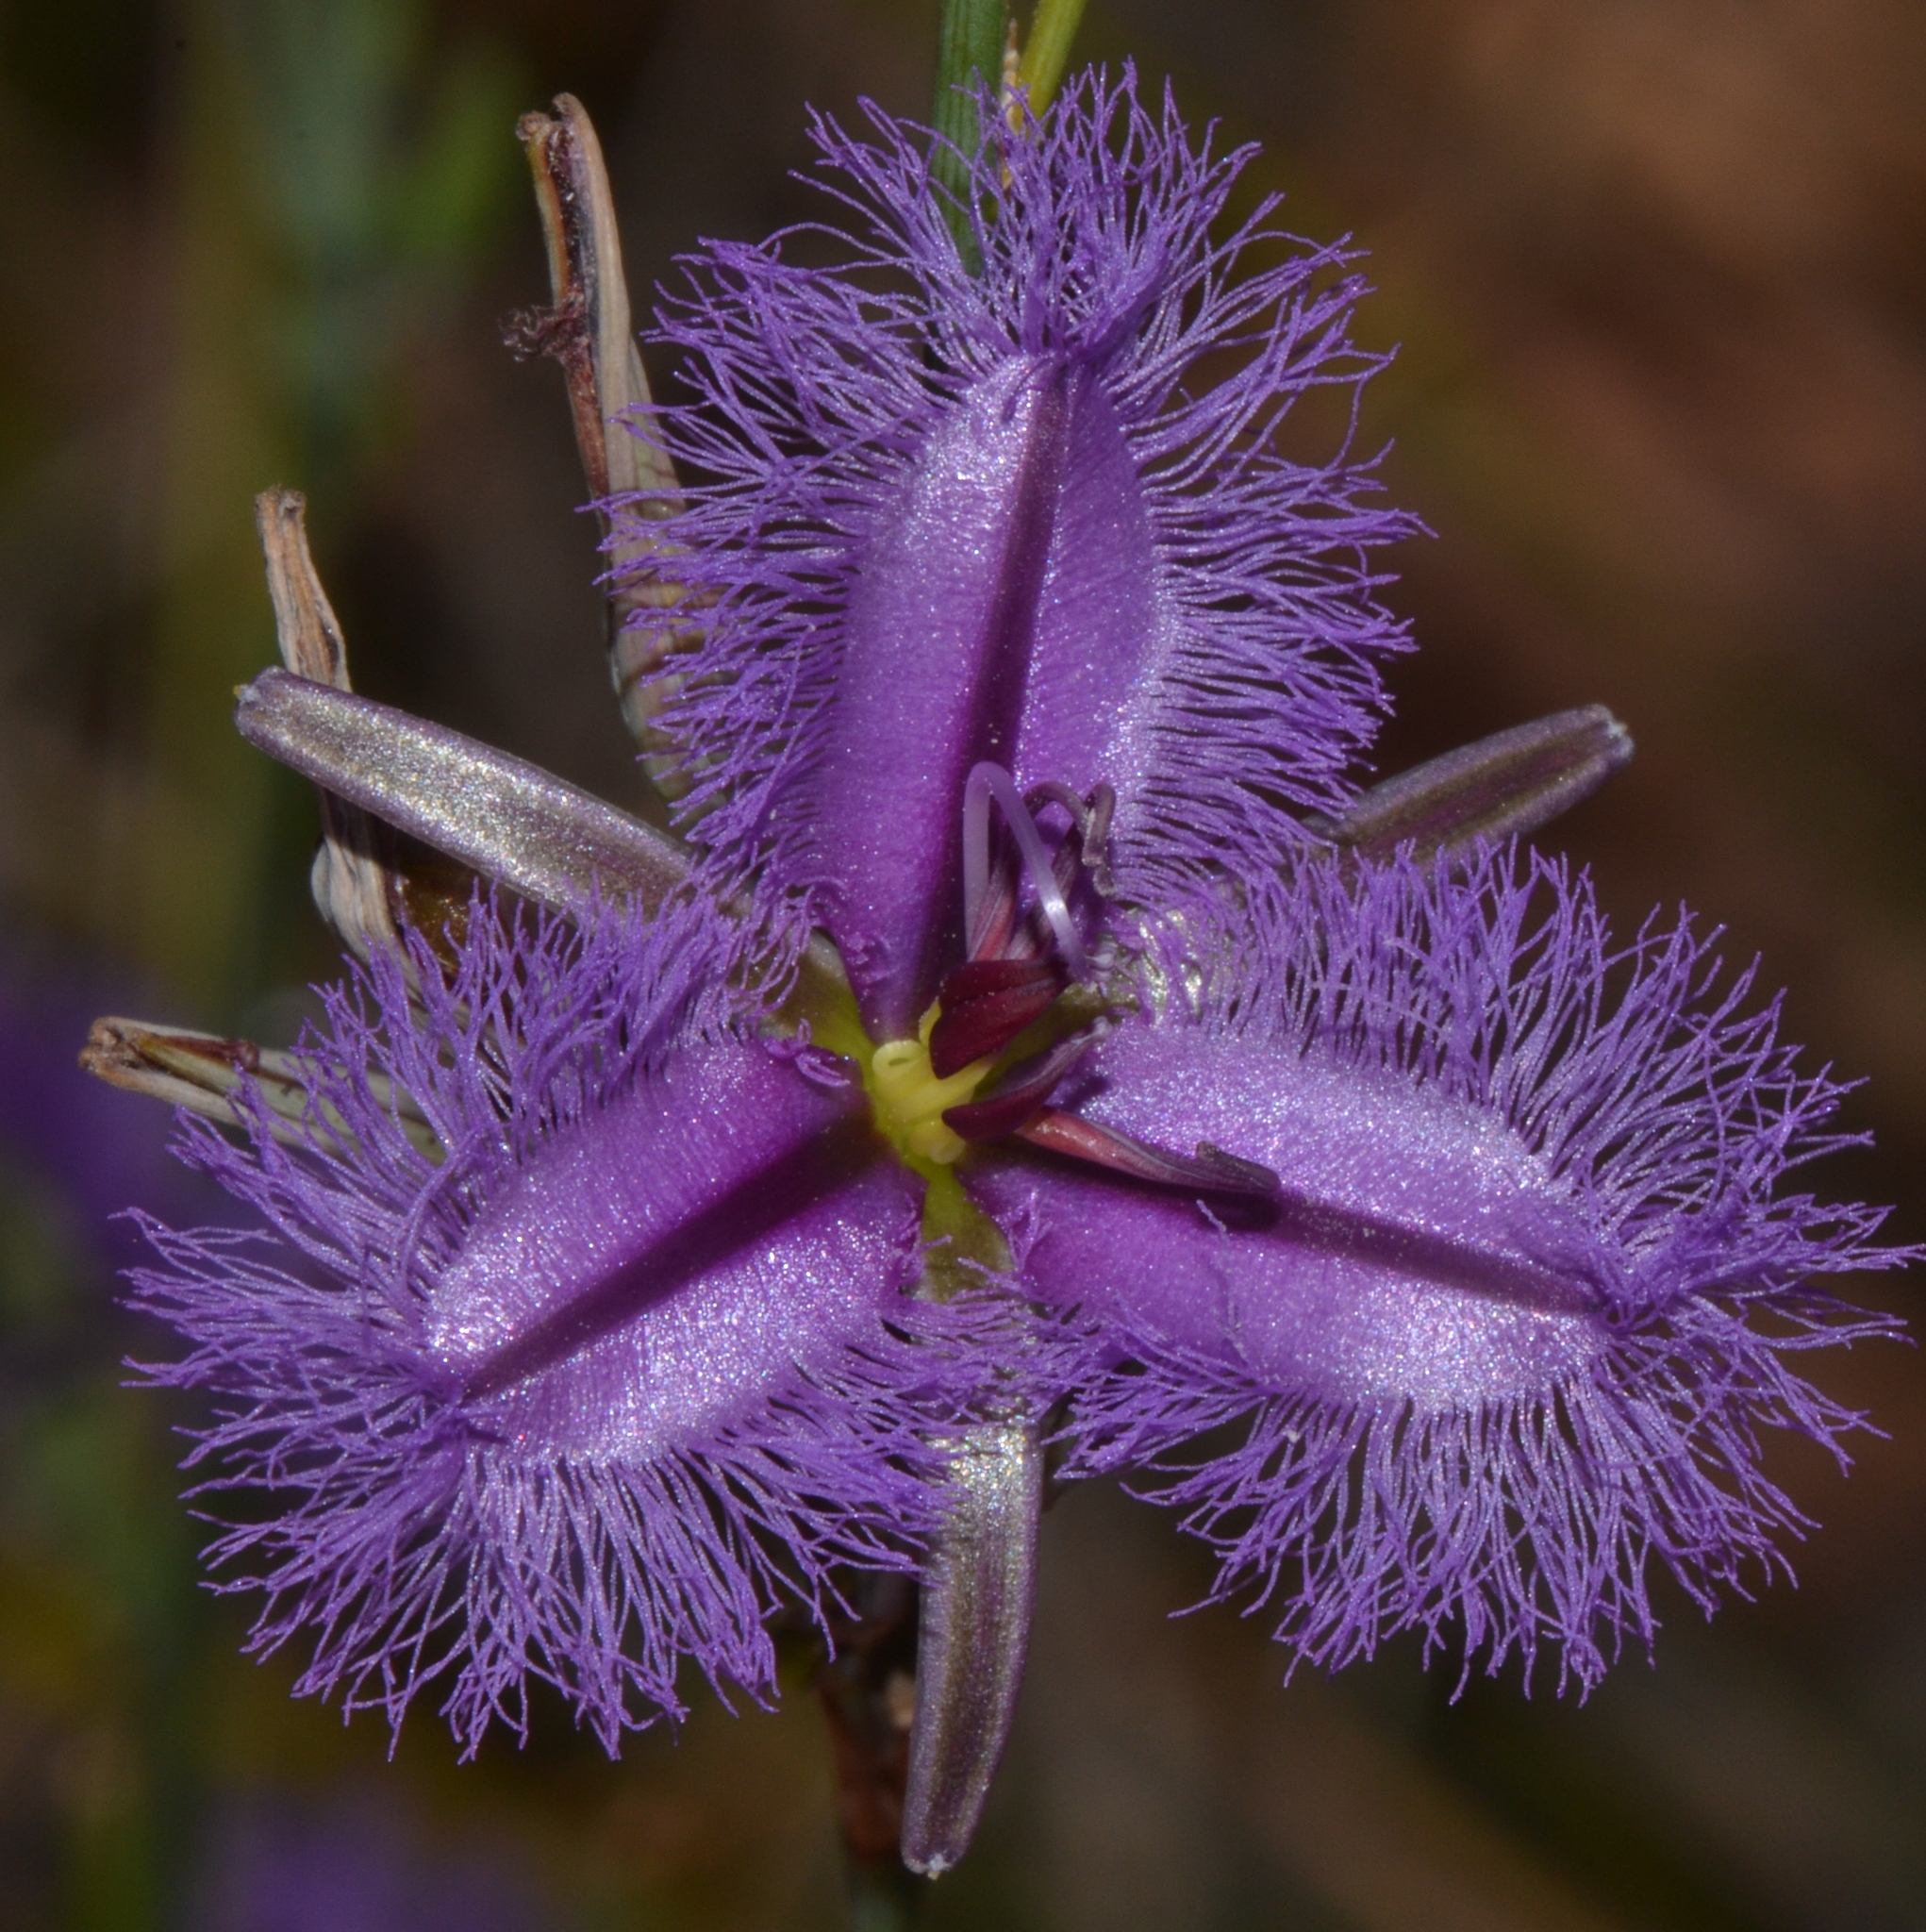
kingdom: Plantae
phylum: Tracheophyta
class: Liliopsida
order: Asparagales
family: Asparagaceae
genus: Thysanotus
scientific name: Thysanotus sparteus
